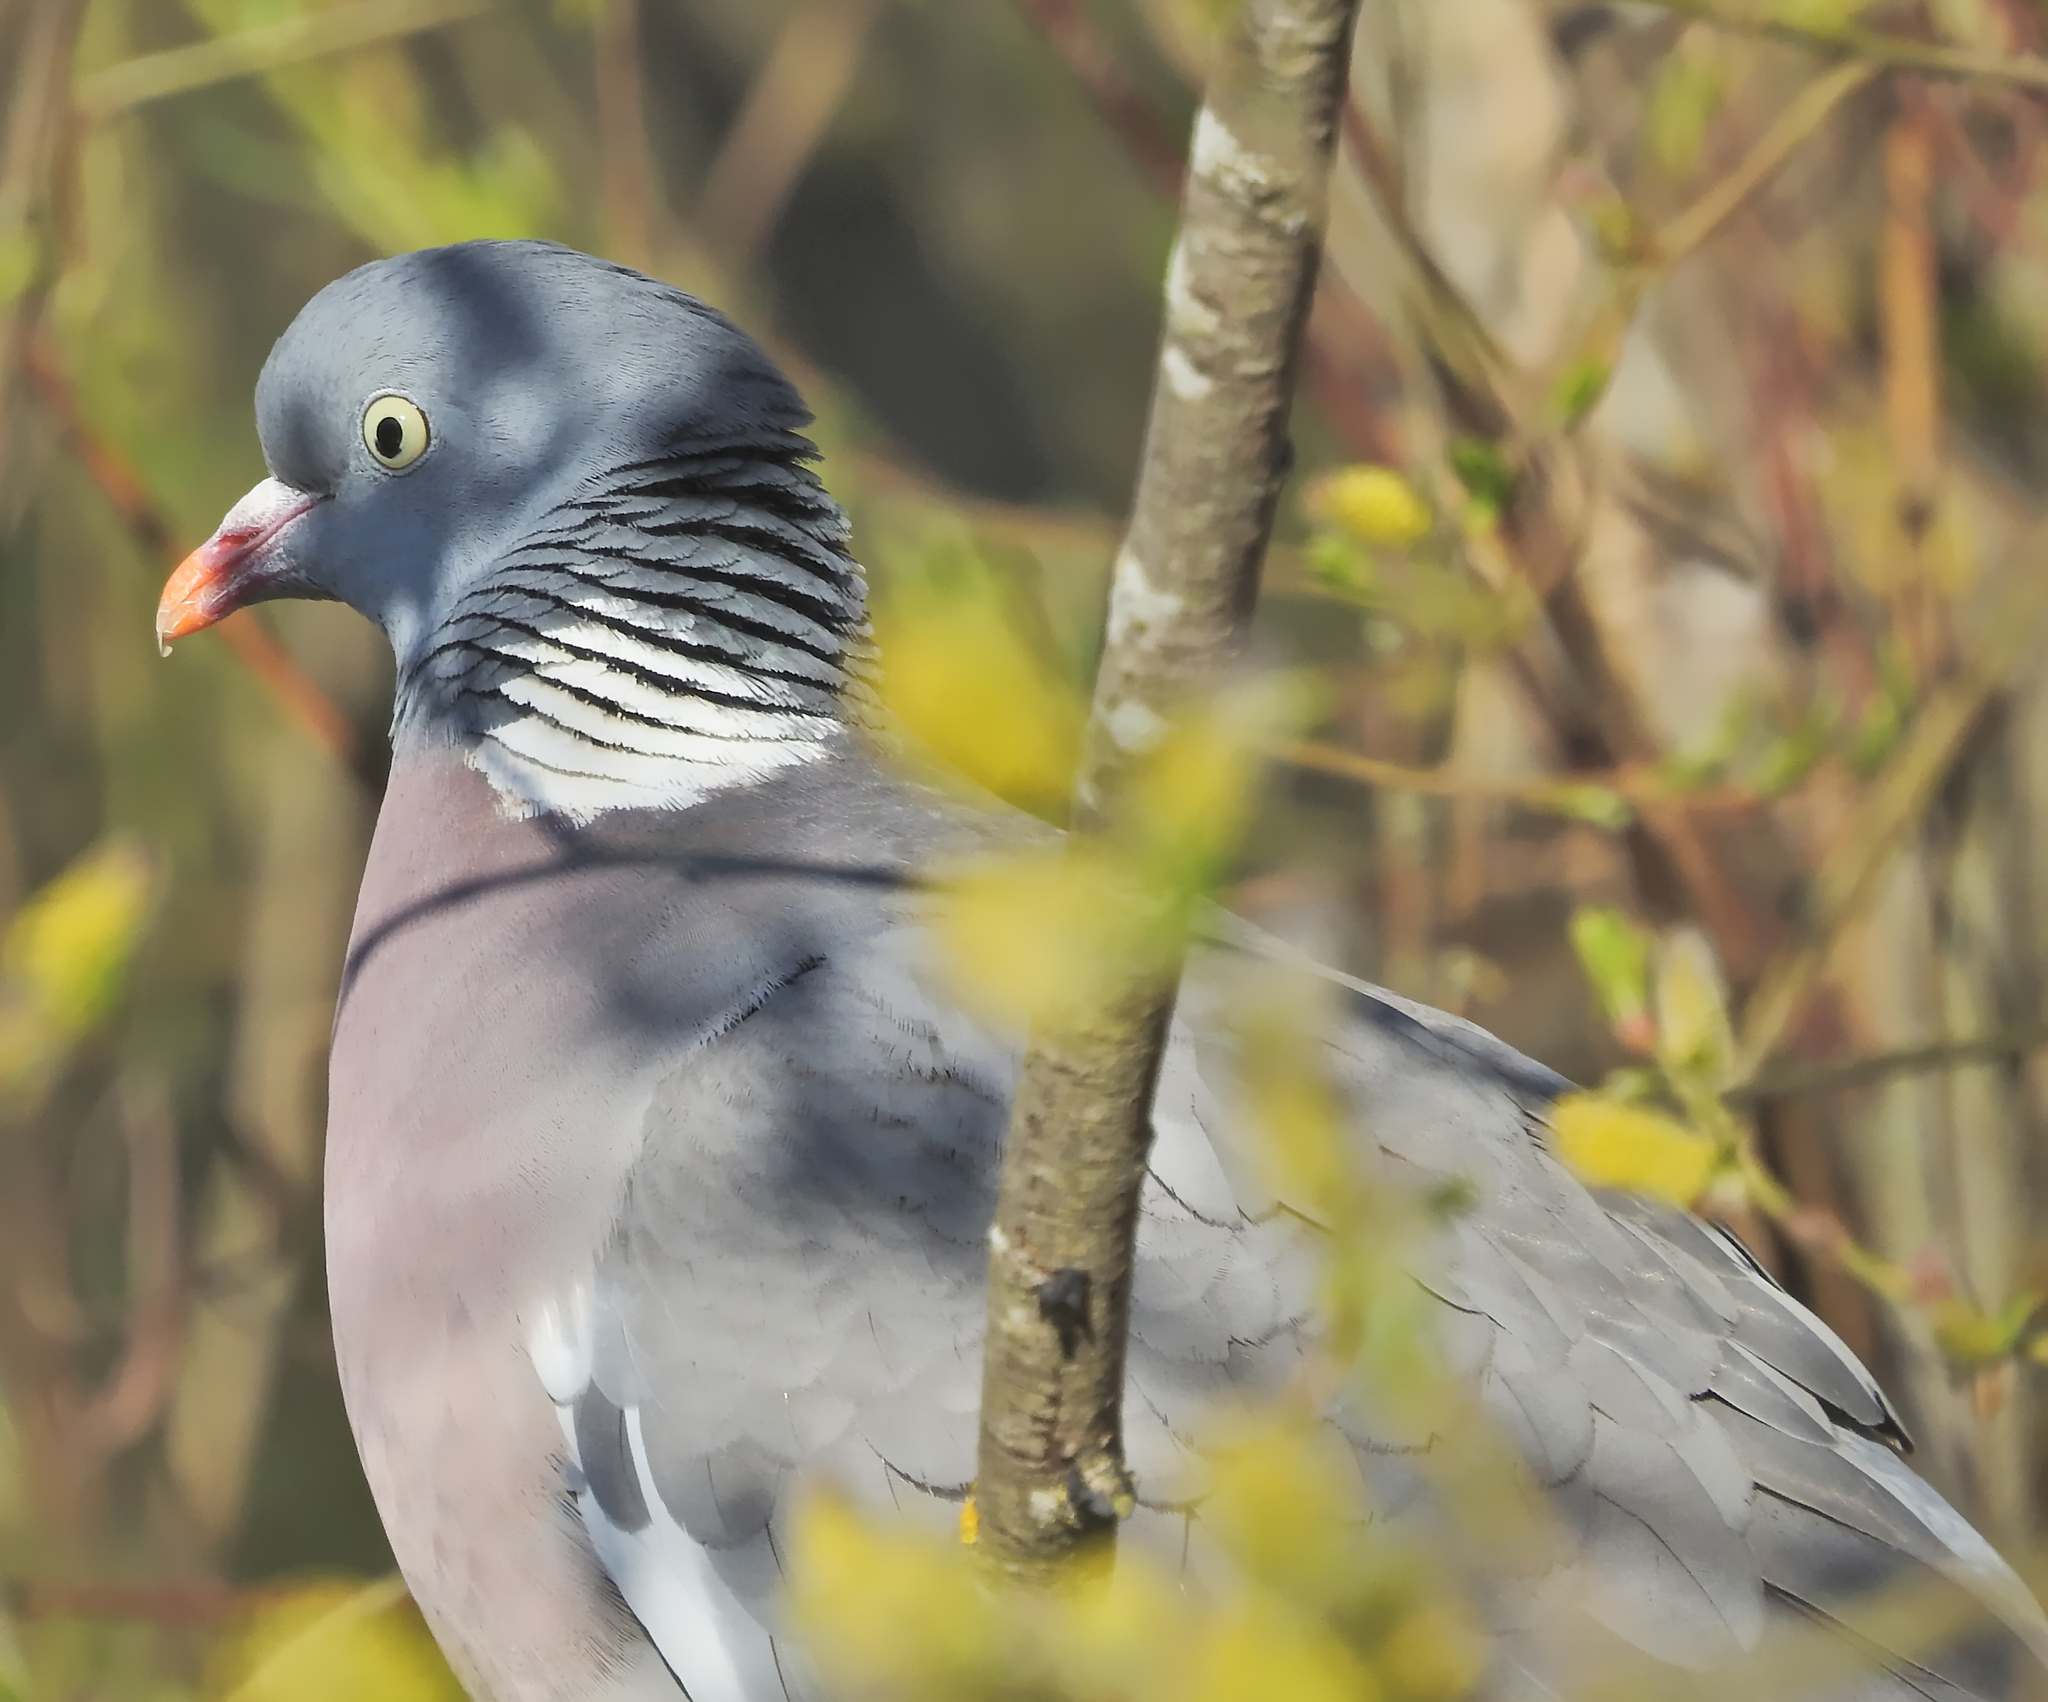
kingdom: Animalia
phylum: Chordata
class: Aves
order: Columbiformes
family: Columbidae
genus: Columba
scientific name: Columba palumbus
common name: Common wood pigeon
